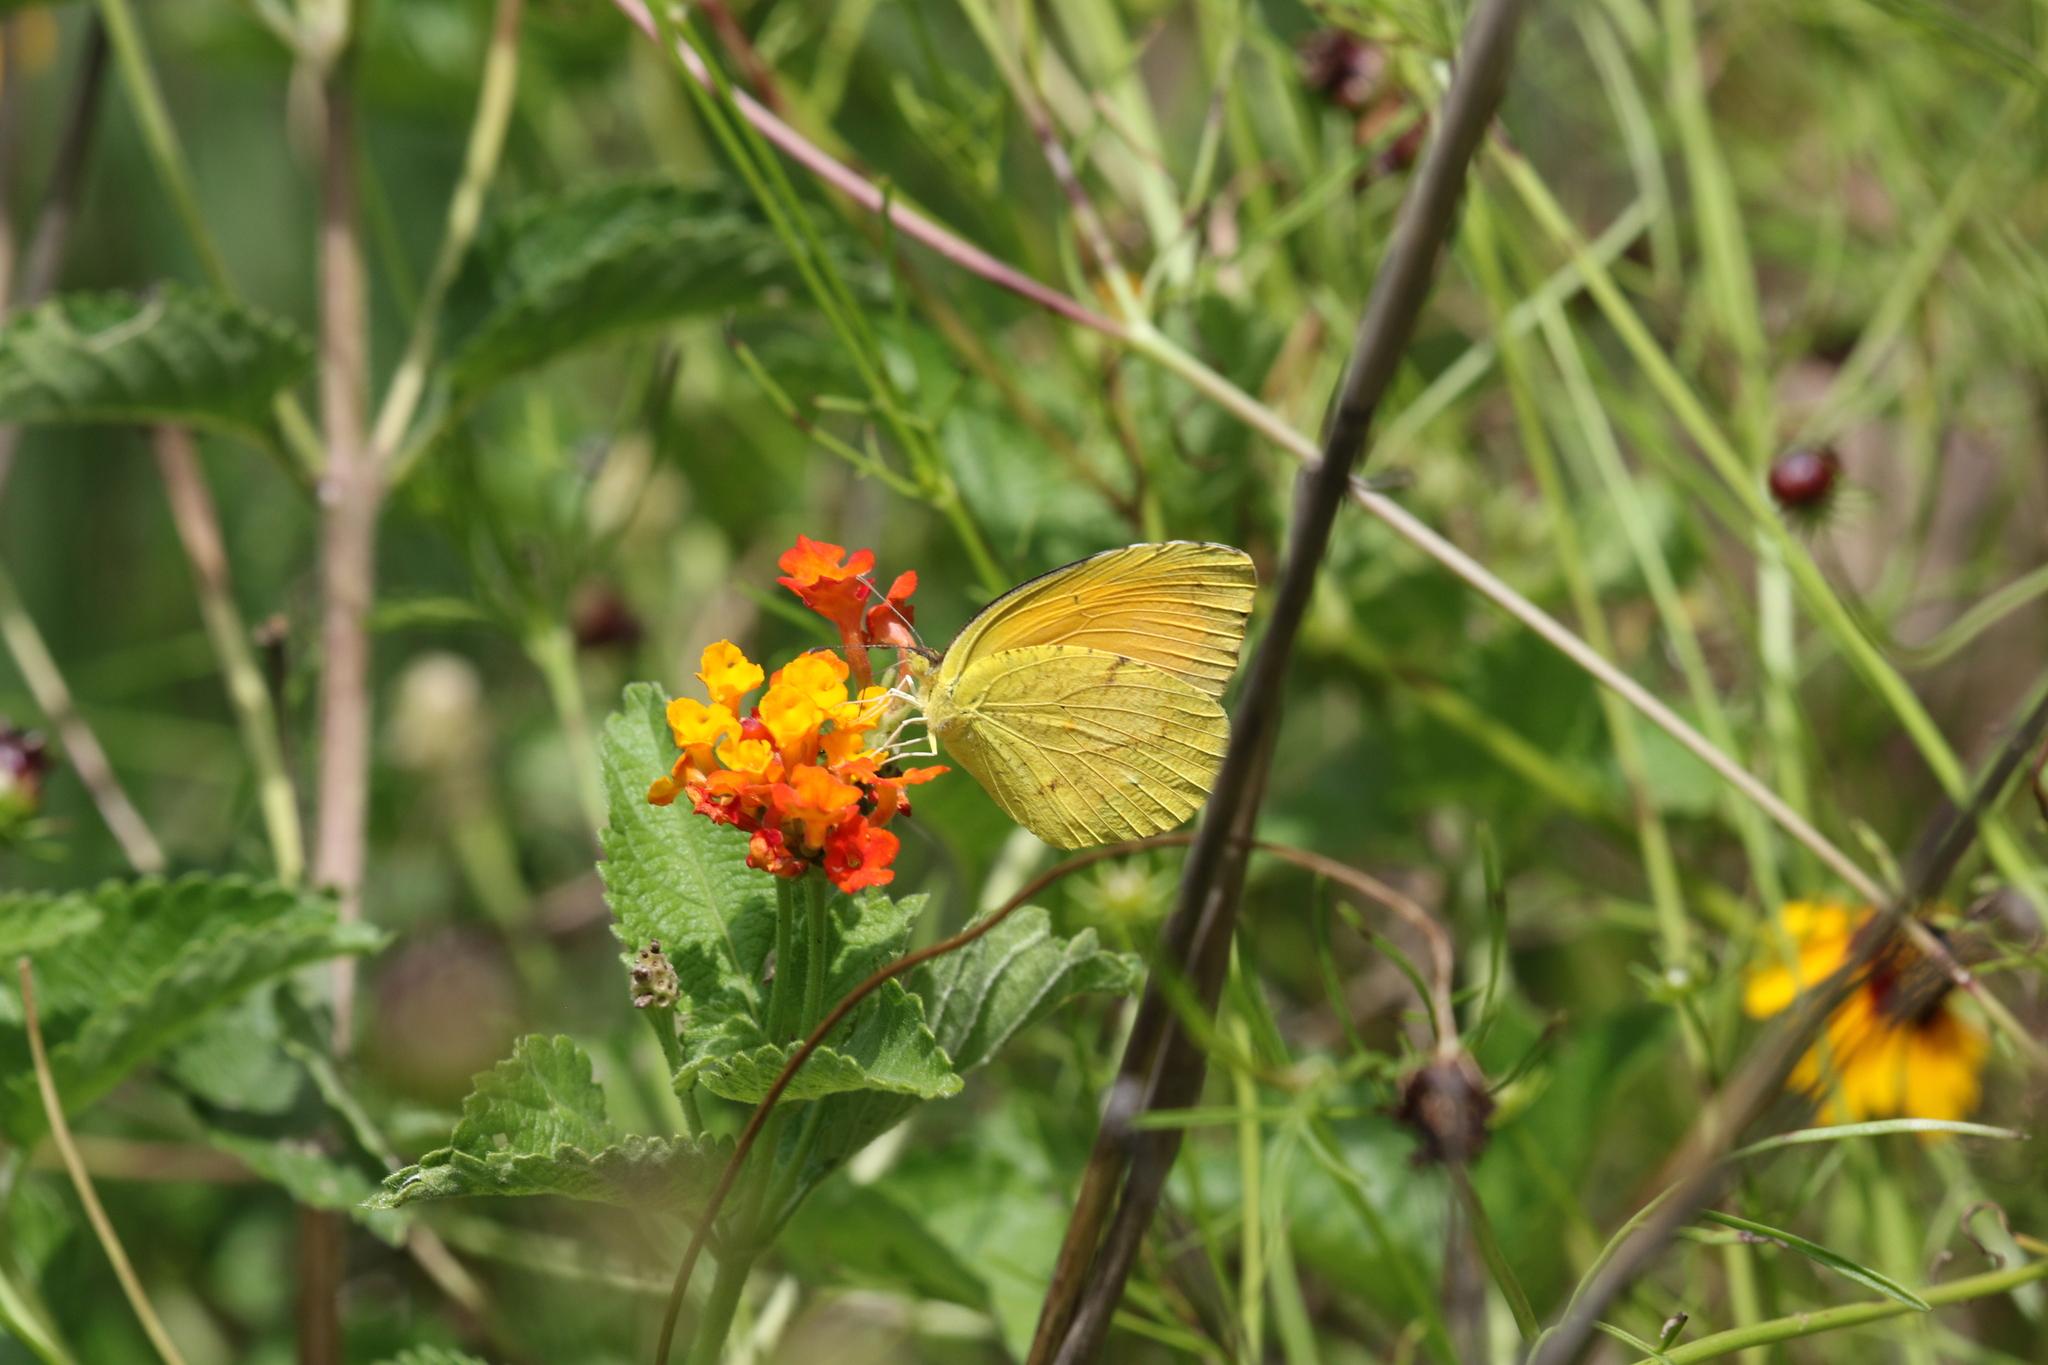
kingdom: Animalia
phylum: Arthropoda
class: Insecta
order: Lepidoptera
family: Pieridae
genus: Abaeis
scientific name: Abaeis nicippe
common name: Sleepy orange
